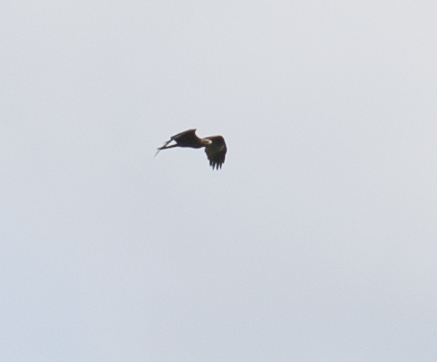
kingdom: Animalia
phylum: Chordata
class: Aves
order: Accipitriformes
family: Accipitridae
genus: Milvus
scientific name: Milvus migrans
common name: Black kite
